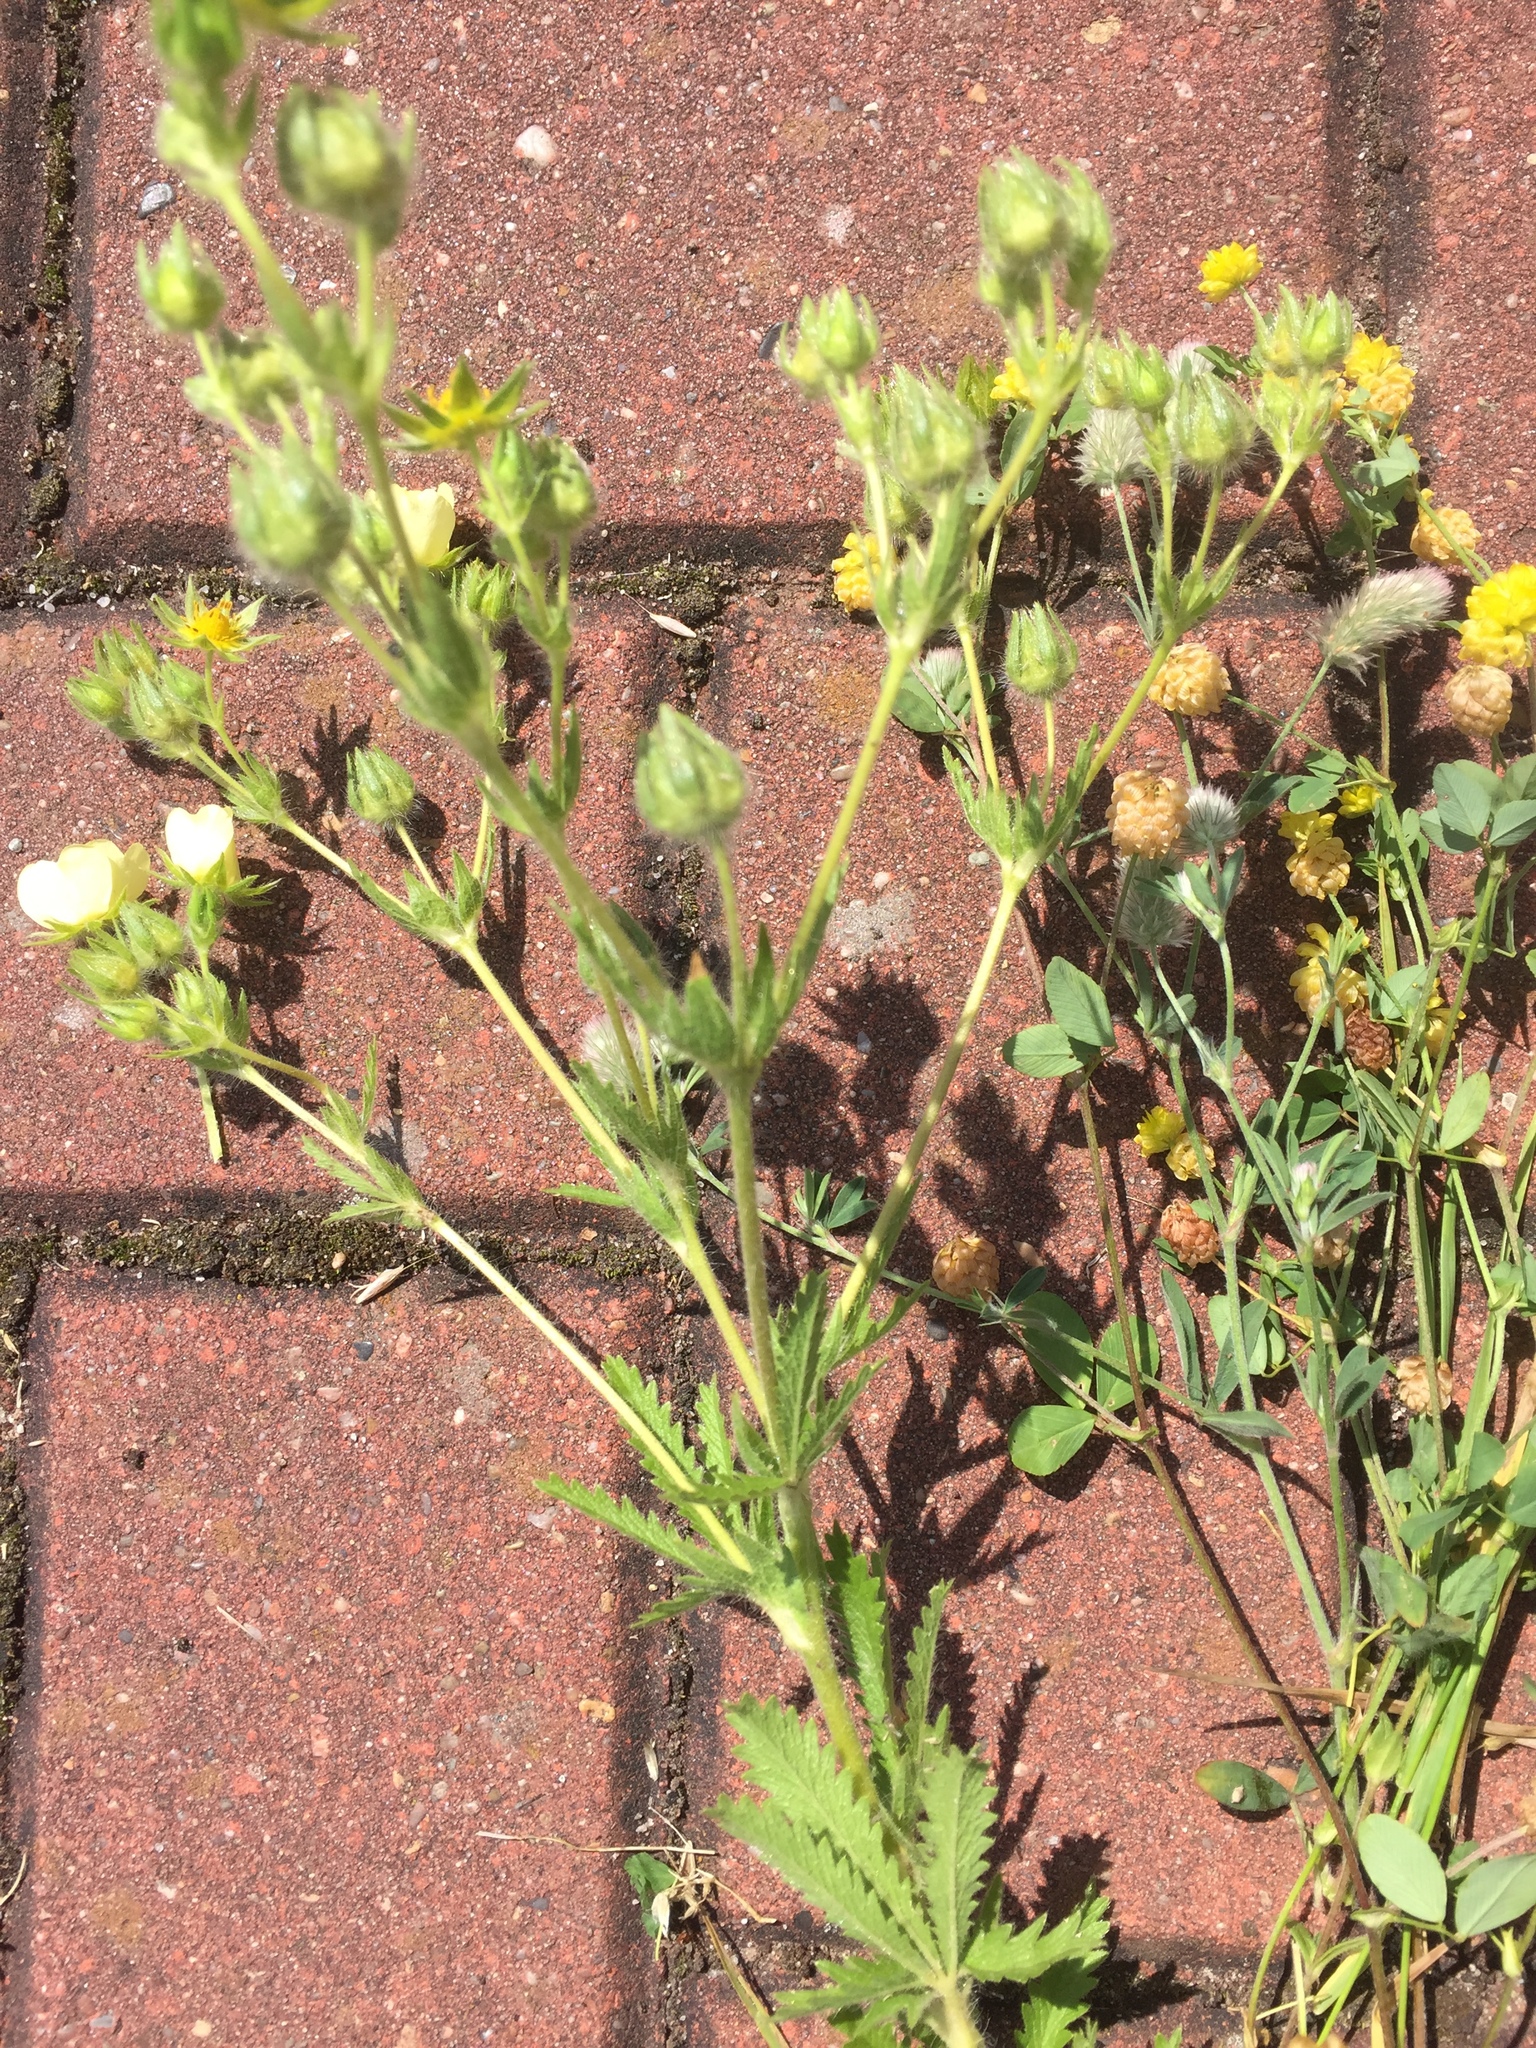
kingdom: Plantae
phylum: Tracheophyta
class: Magnoliopsida
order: Rosales
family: Rosaceae
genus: Potentilla
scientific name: Potentilla recta
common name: Sulphur cinquefoil
